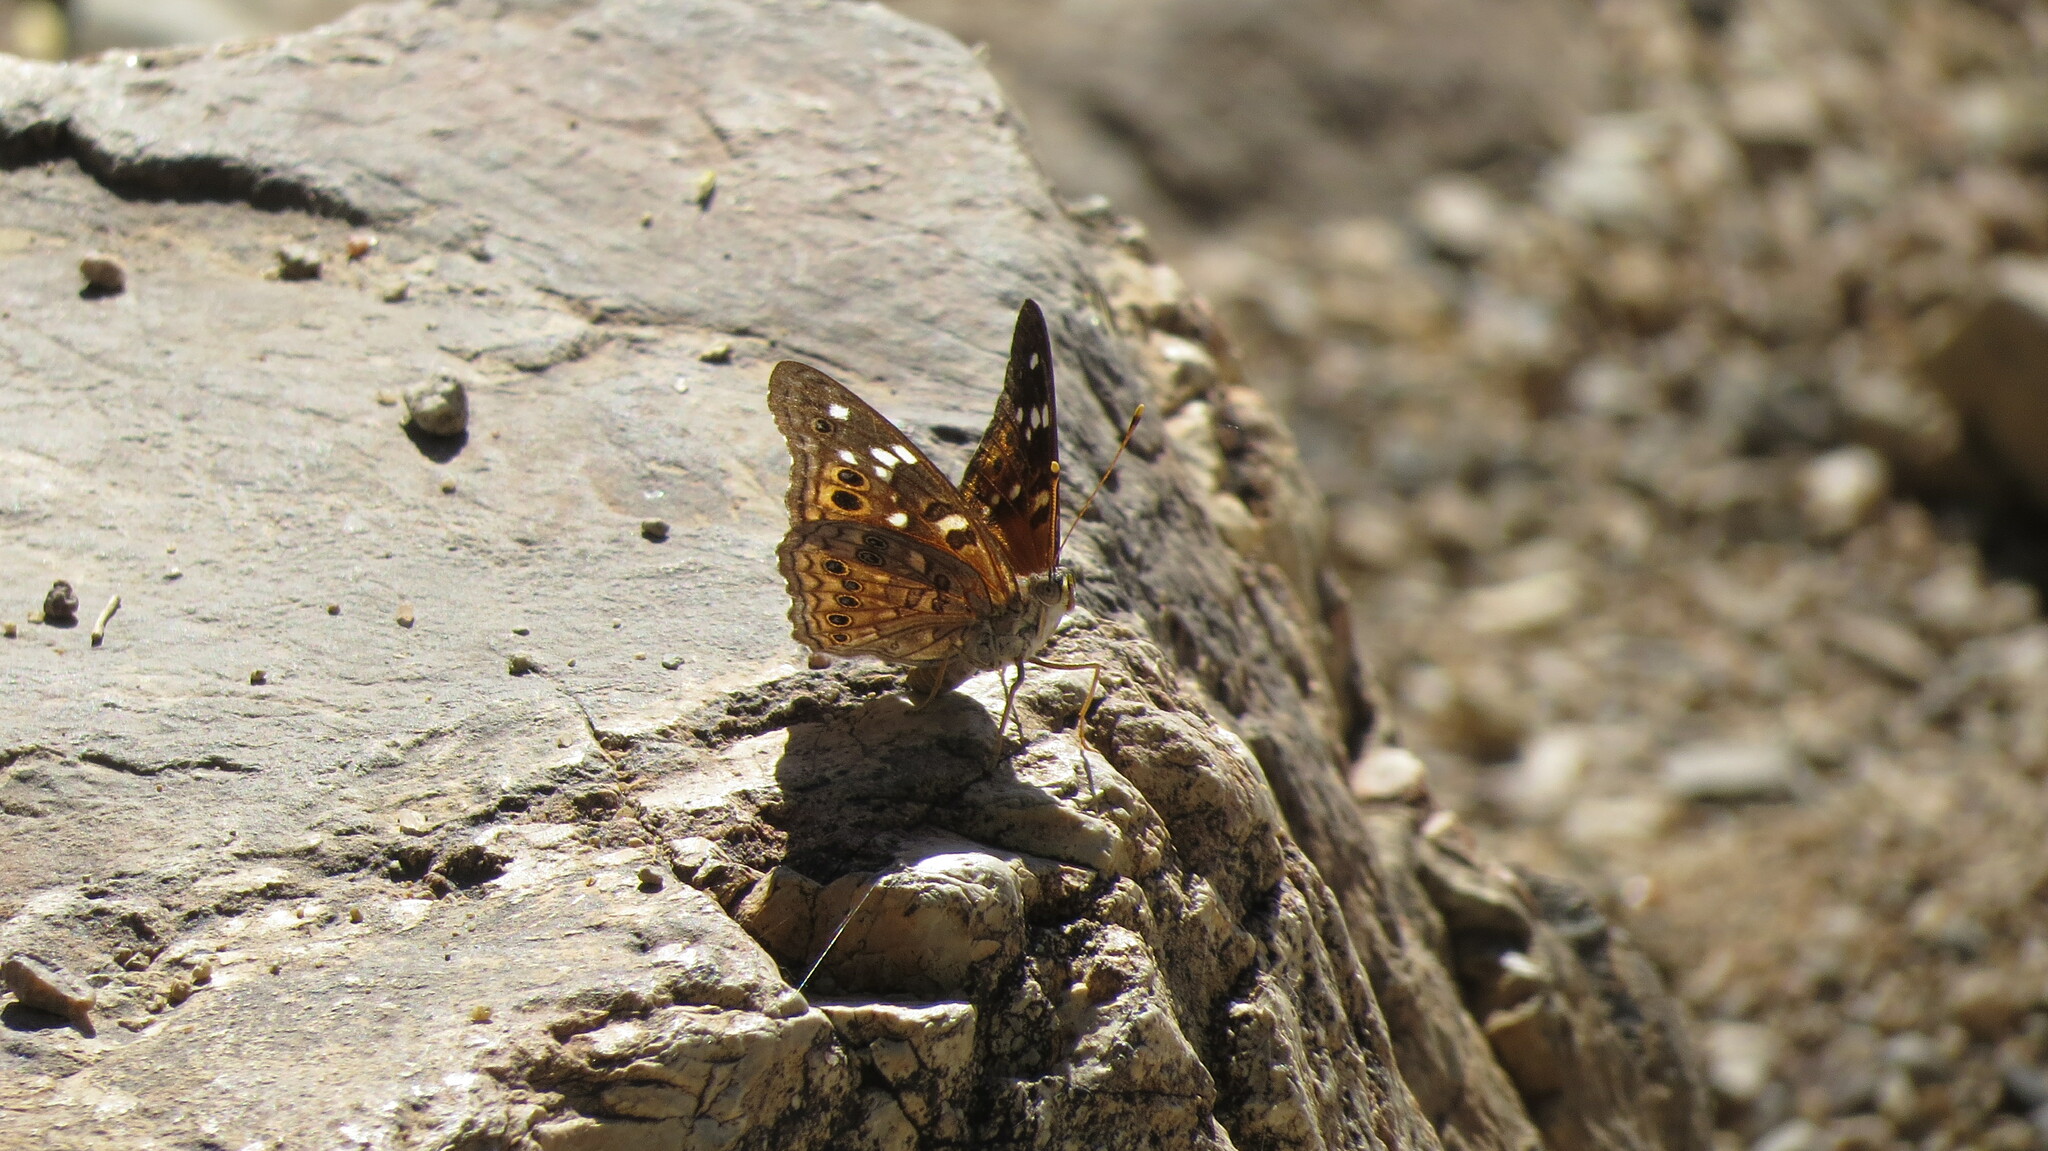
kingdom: Animalia
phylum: Arthropoda
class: Insecta
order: Lepidoptera
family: Nymphalidae
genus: Asterocampa
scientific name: Asterocampa leilia
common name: Empress leilia
